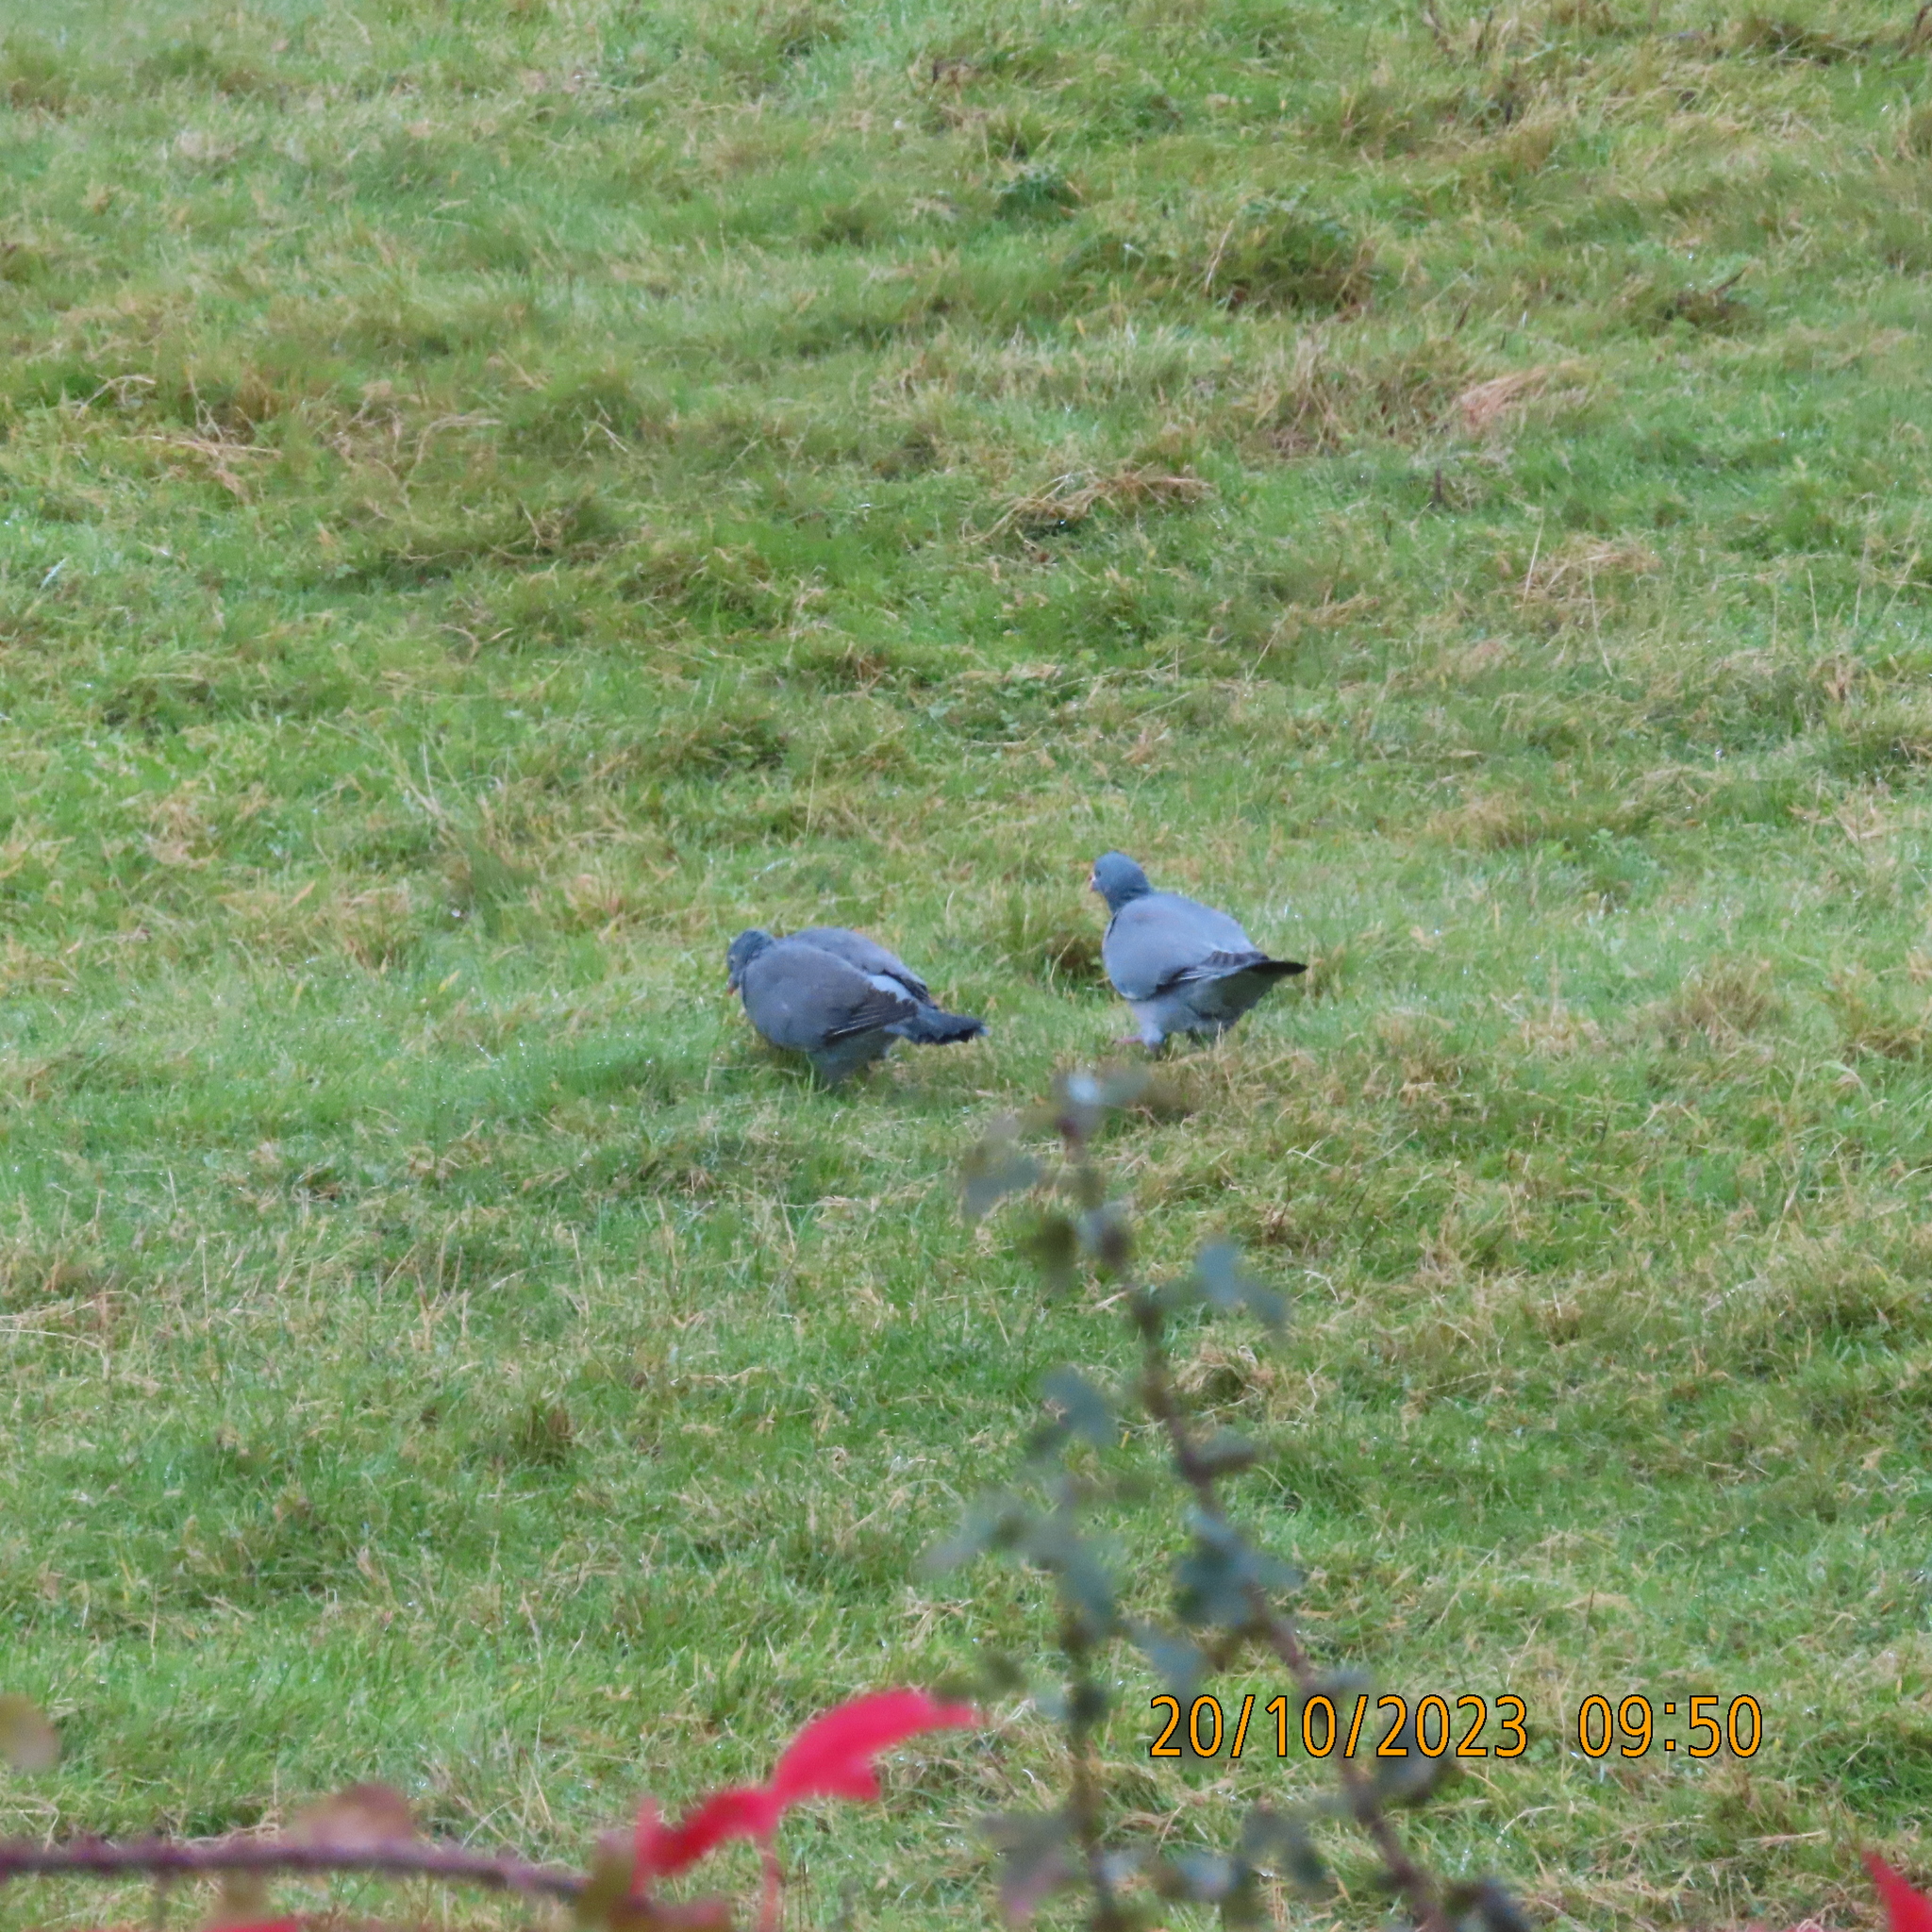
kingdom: Animalia
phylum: Chordata
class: Aves
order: Columbiformes
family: Columbidae
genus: Columba
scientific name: Columba palumbus
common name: Common wood pigeon
